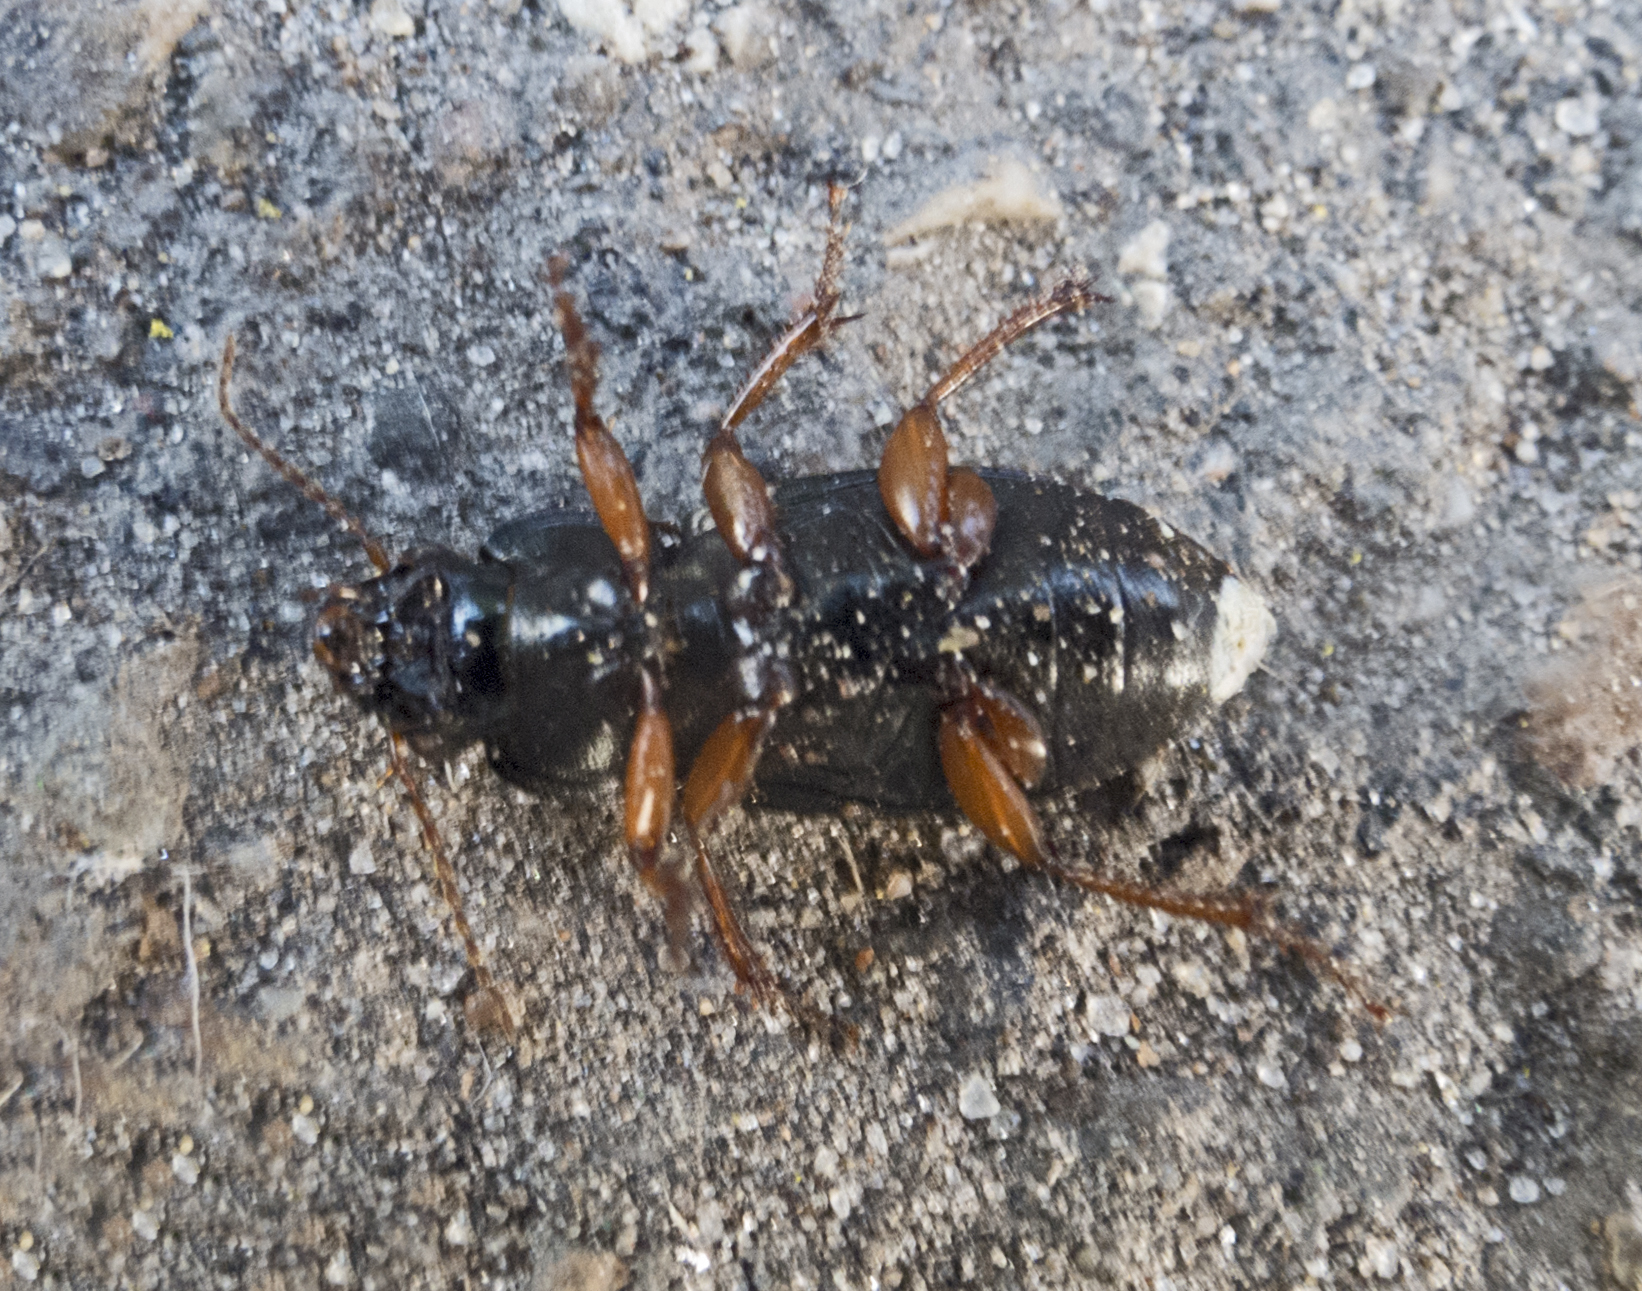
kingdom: Animalia
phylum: Arthropoda
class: Insecta
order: Coleoptera
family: Carabidae
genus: Harpalus
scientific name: Harpalus affinis
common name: Polychrome harp ground beetle
